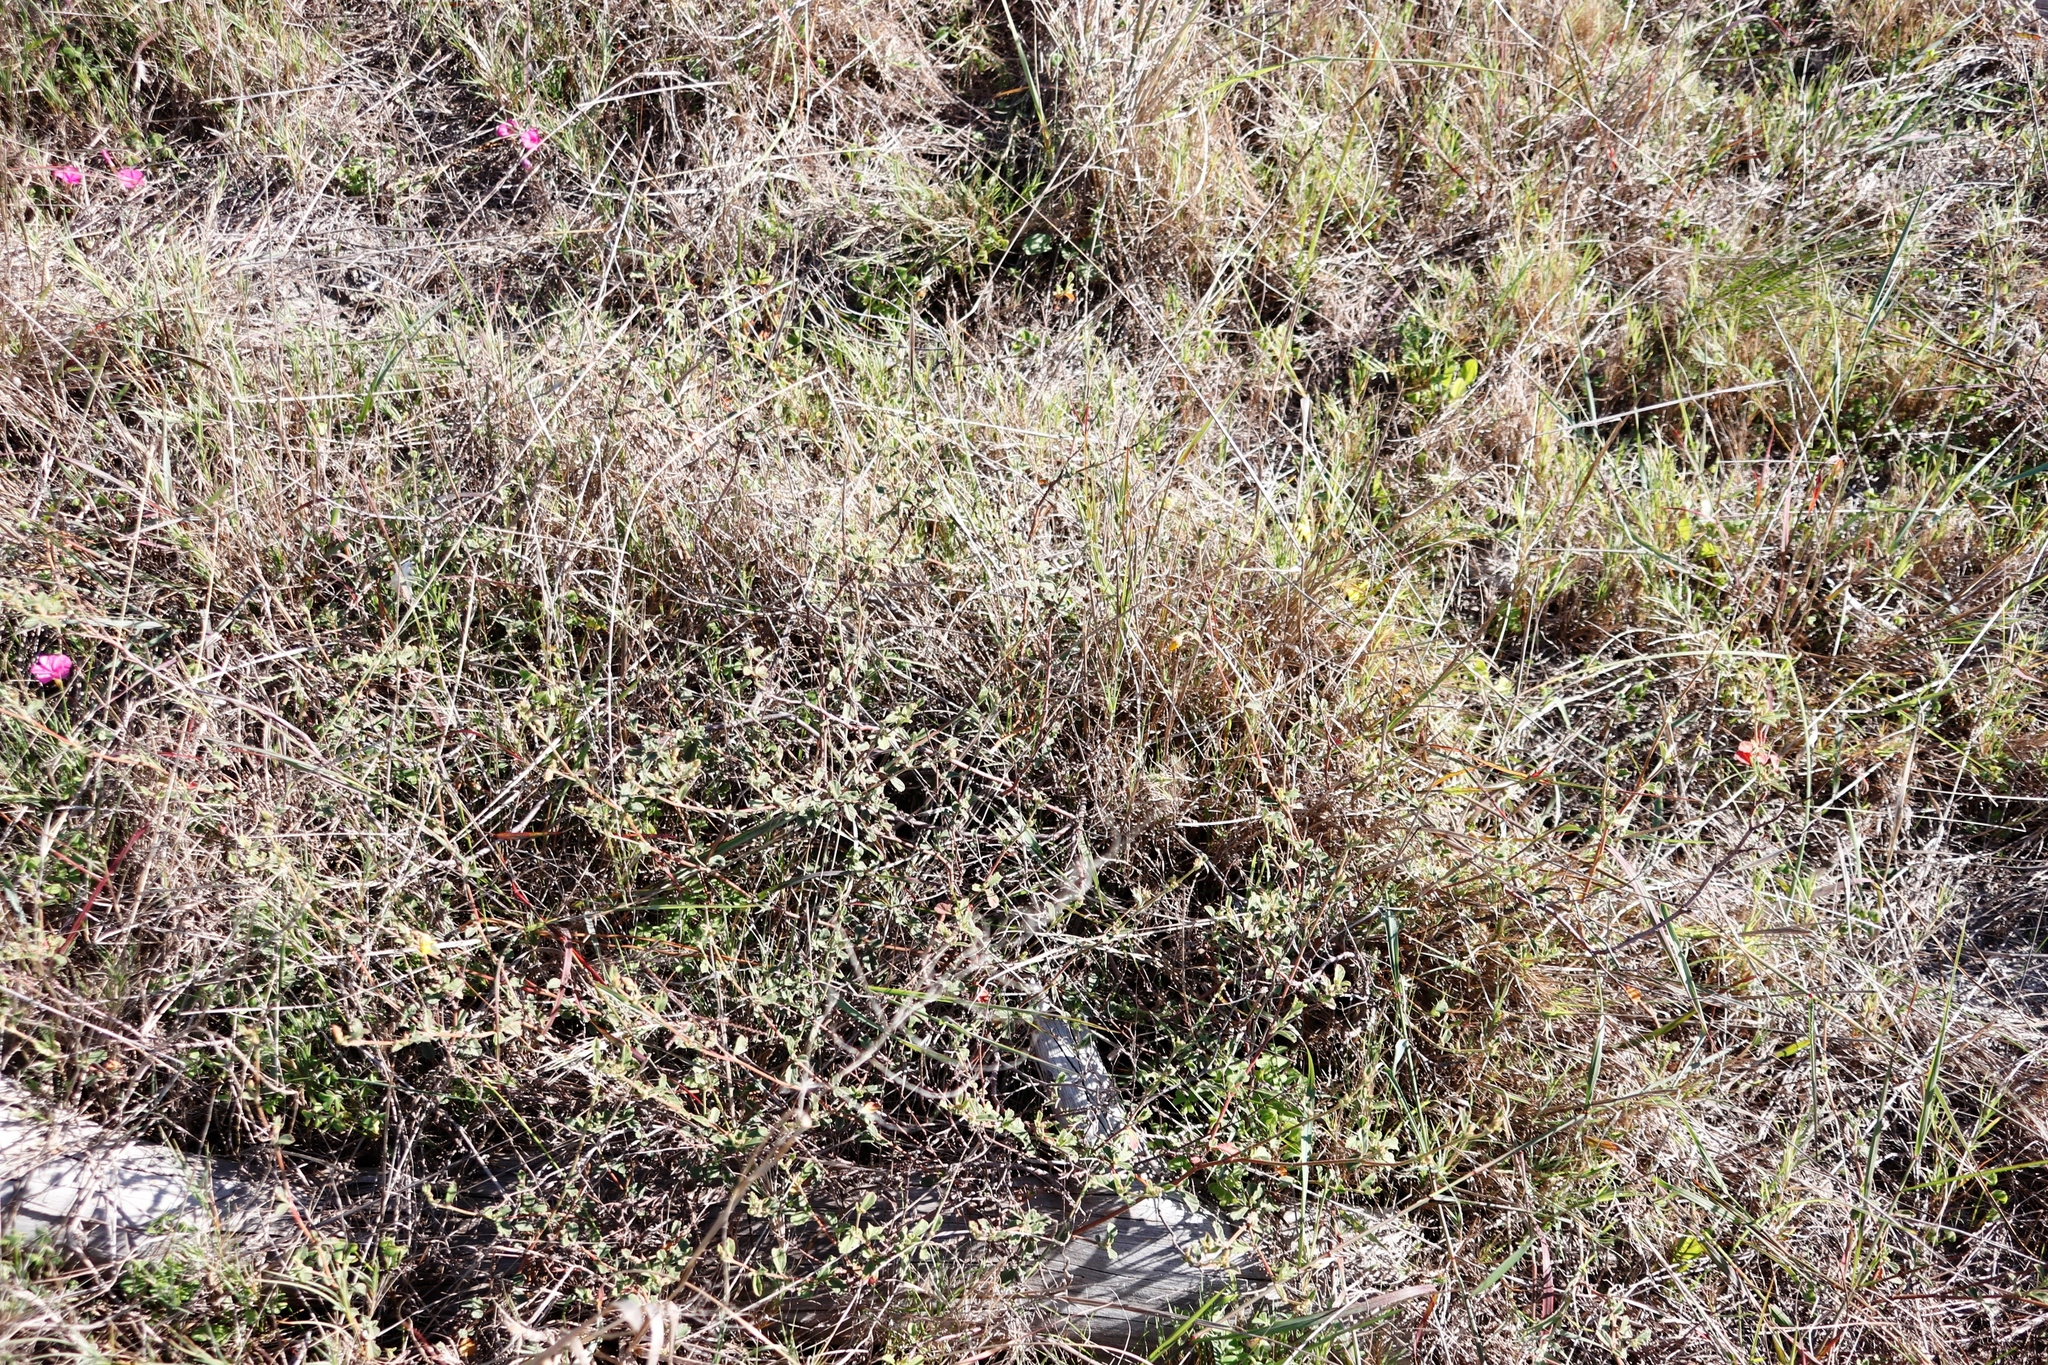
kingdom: Plantae
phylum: Tracheophyta
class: Magnoliopsida
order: Malvales
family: Malvaceae
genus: Hermannia
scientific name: Hermannia multiflora
